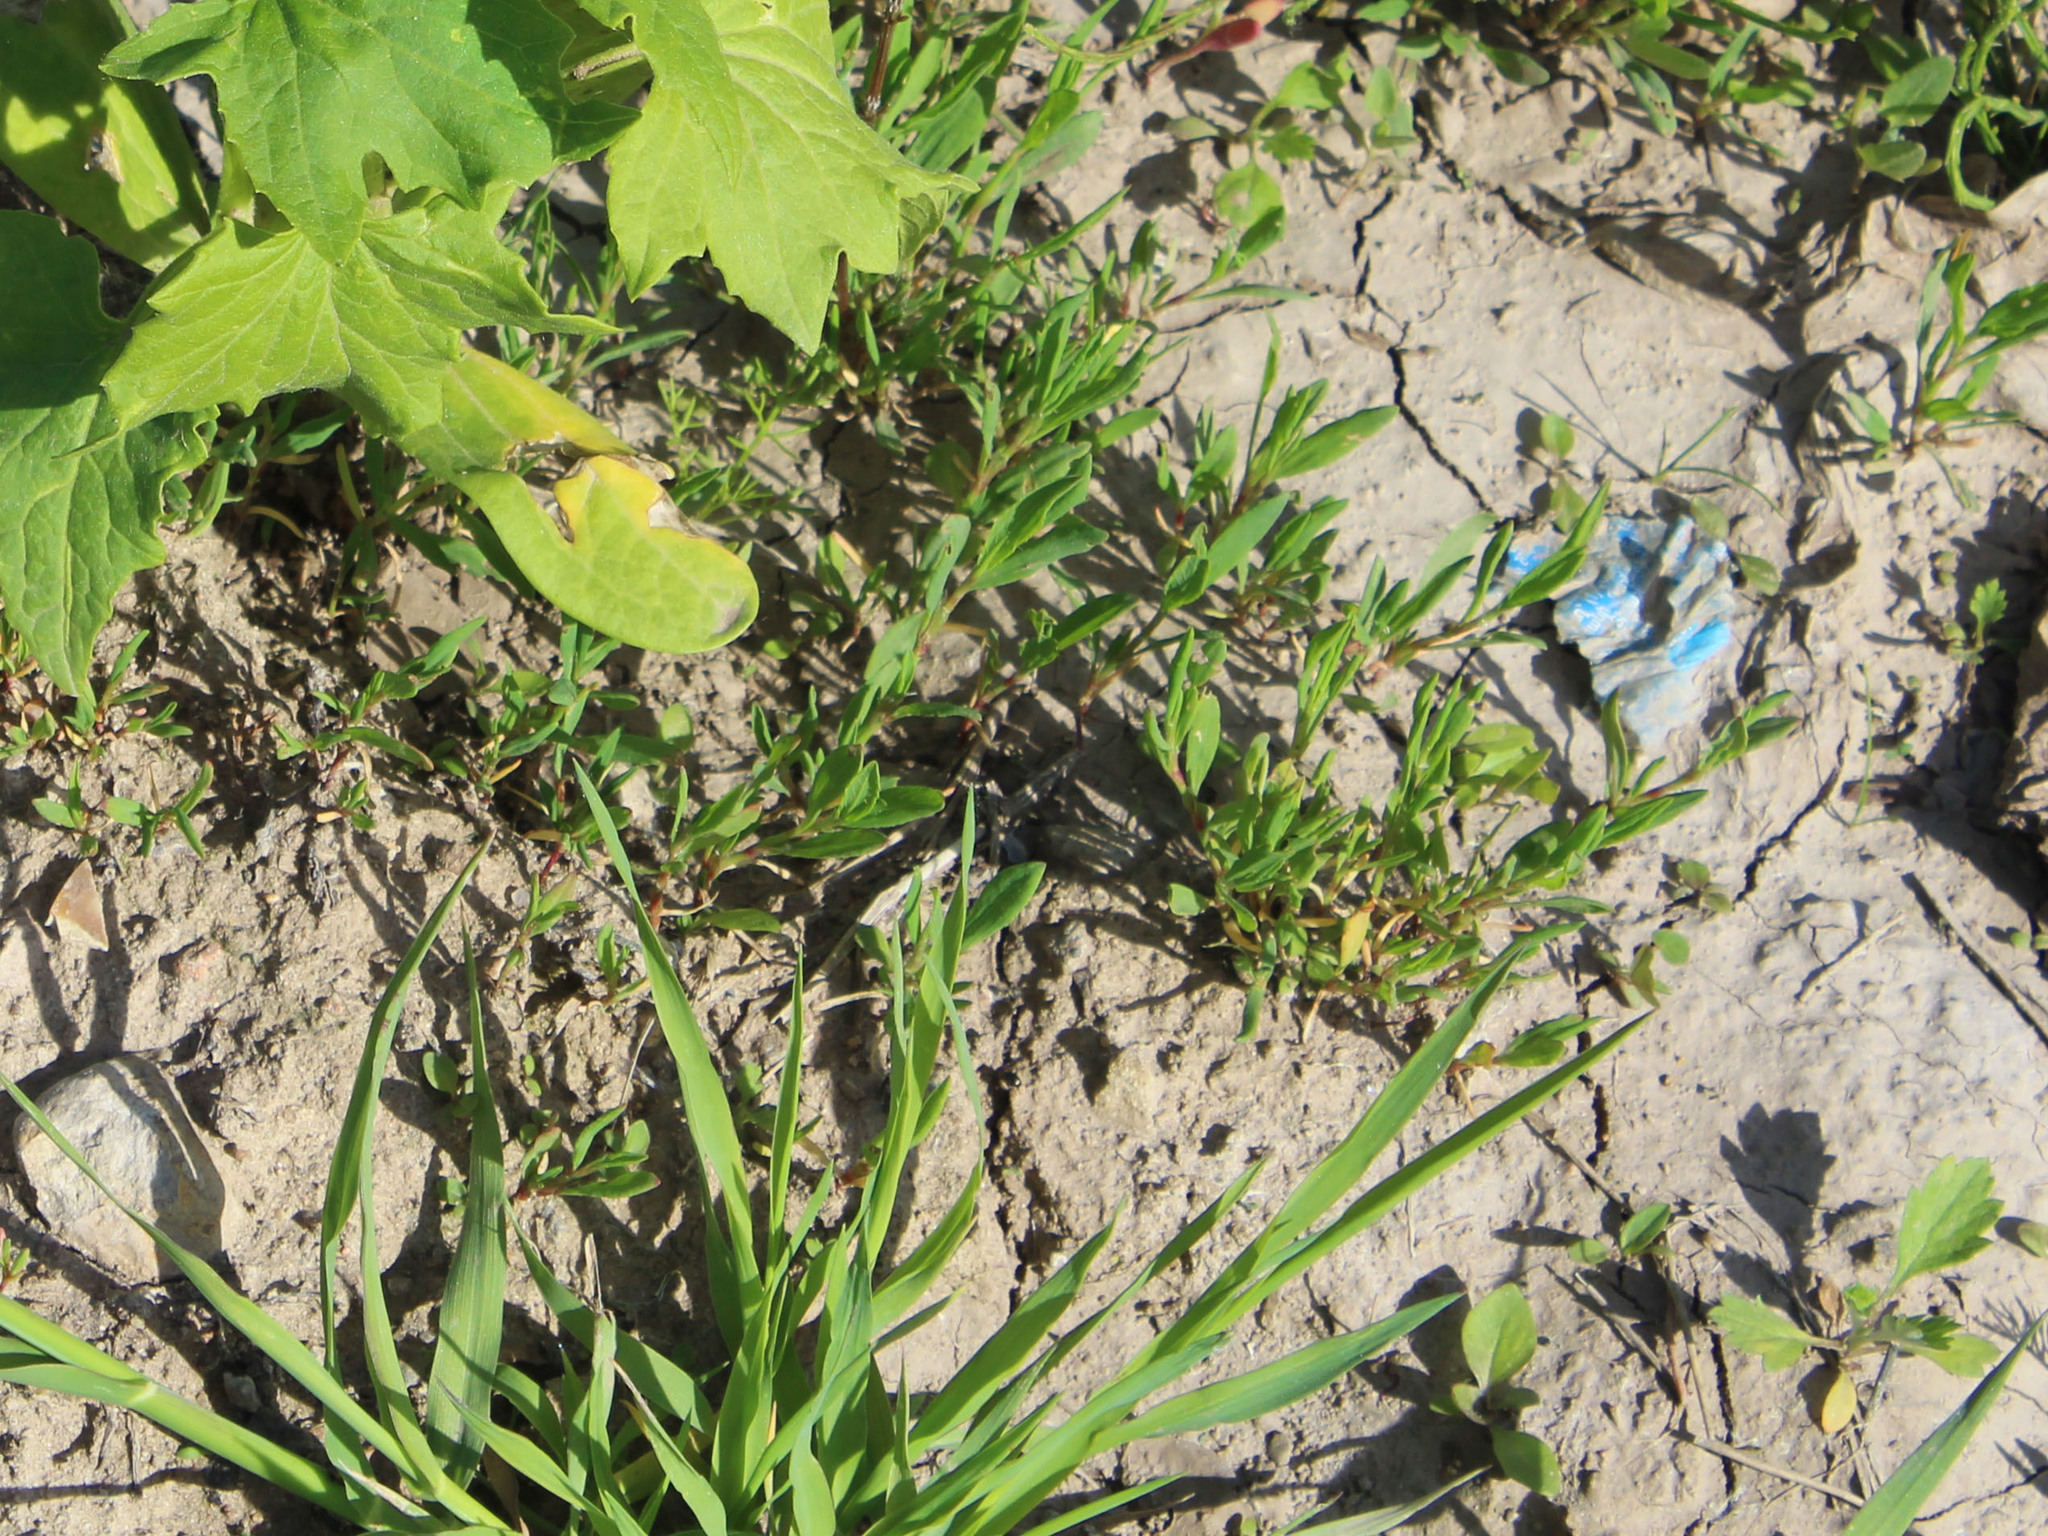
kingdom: Plantae
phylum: Tracheophyta
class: Magnoliopsida
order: Caryophyllales
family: Polygonaceae
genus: Polygonum
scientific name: Polygonum aviculare
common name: Prostrate knotweed
